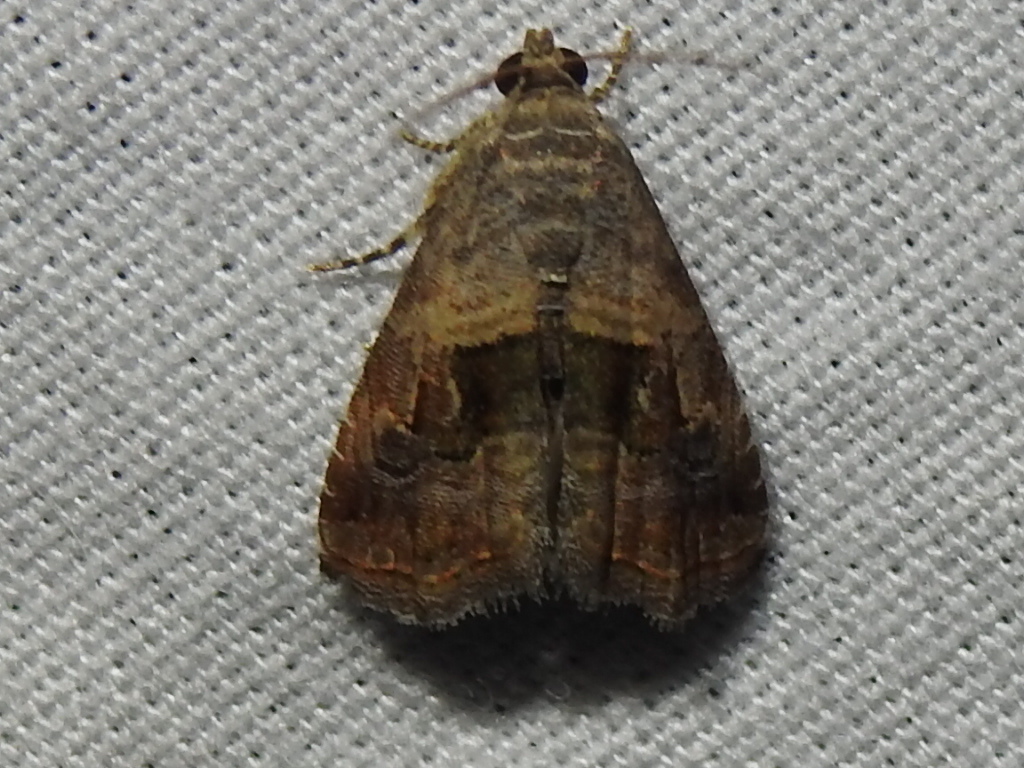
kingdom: Animalia
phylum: Arthropoda
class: Insecta
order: Lepidoptera
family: Noctuidae
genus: Tripudia
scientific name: Tripudia quadrifera
